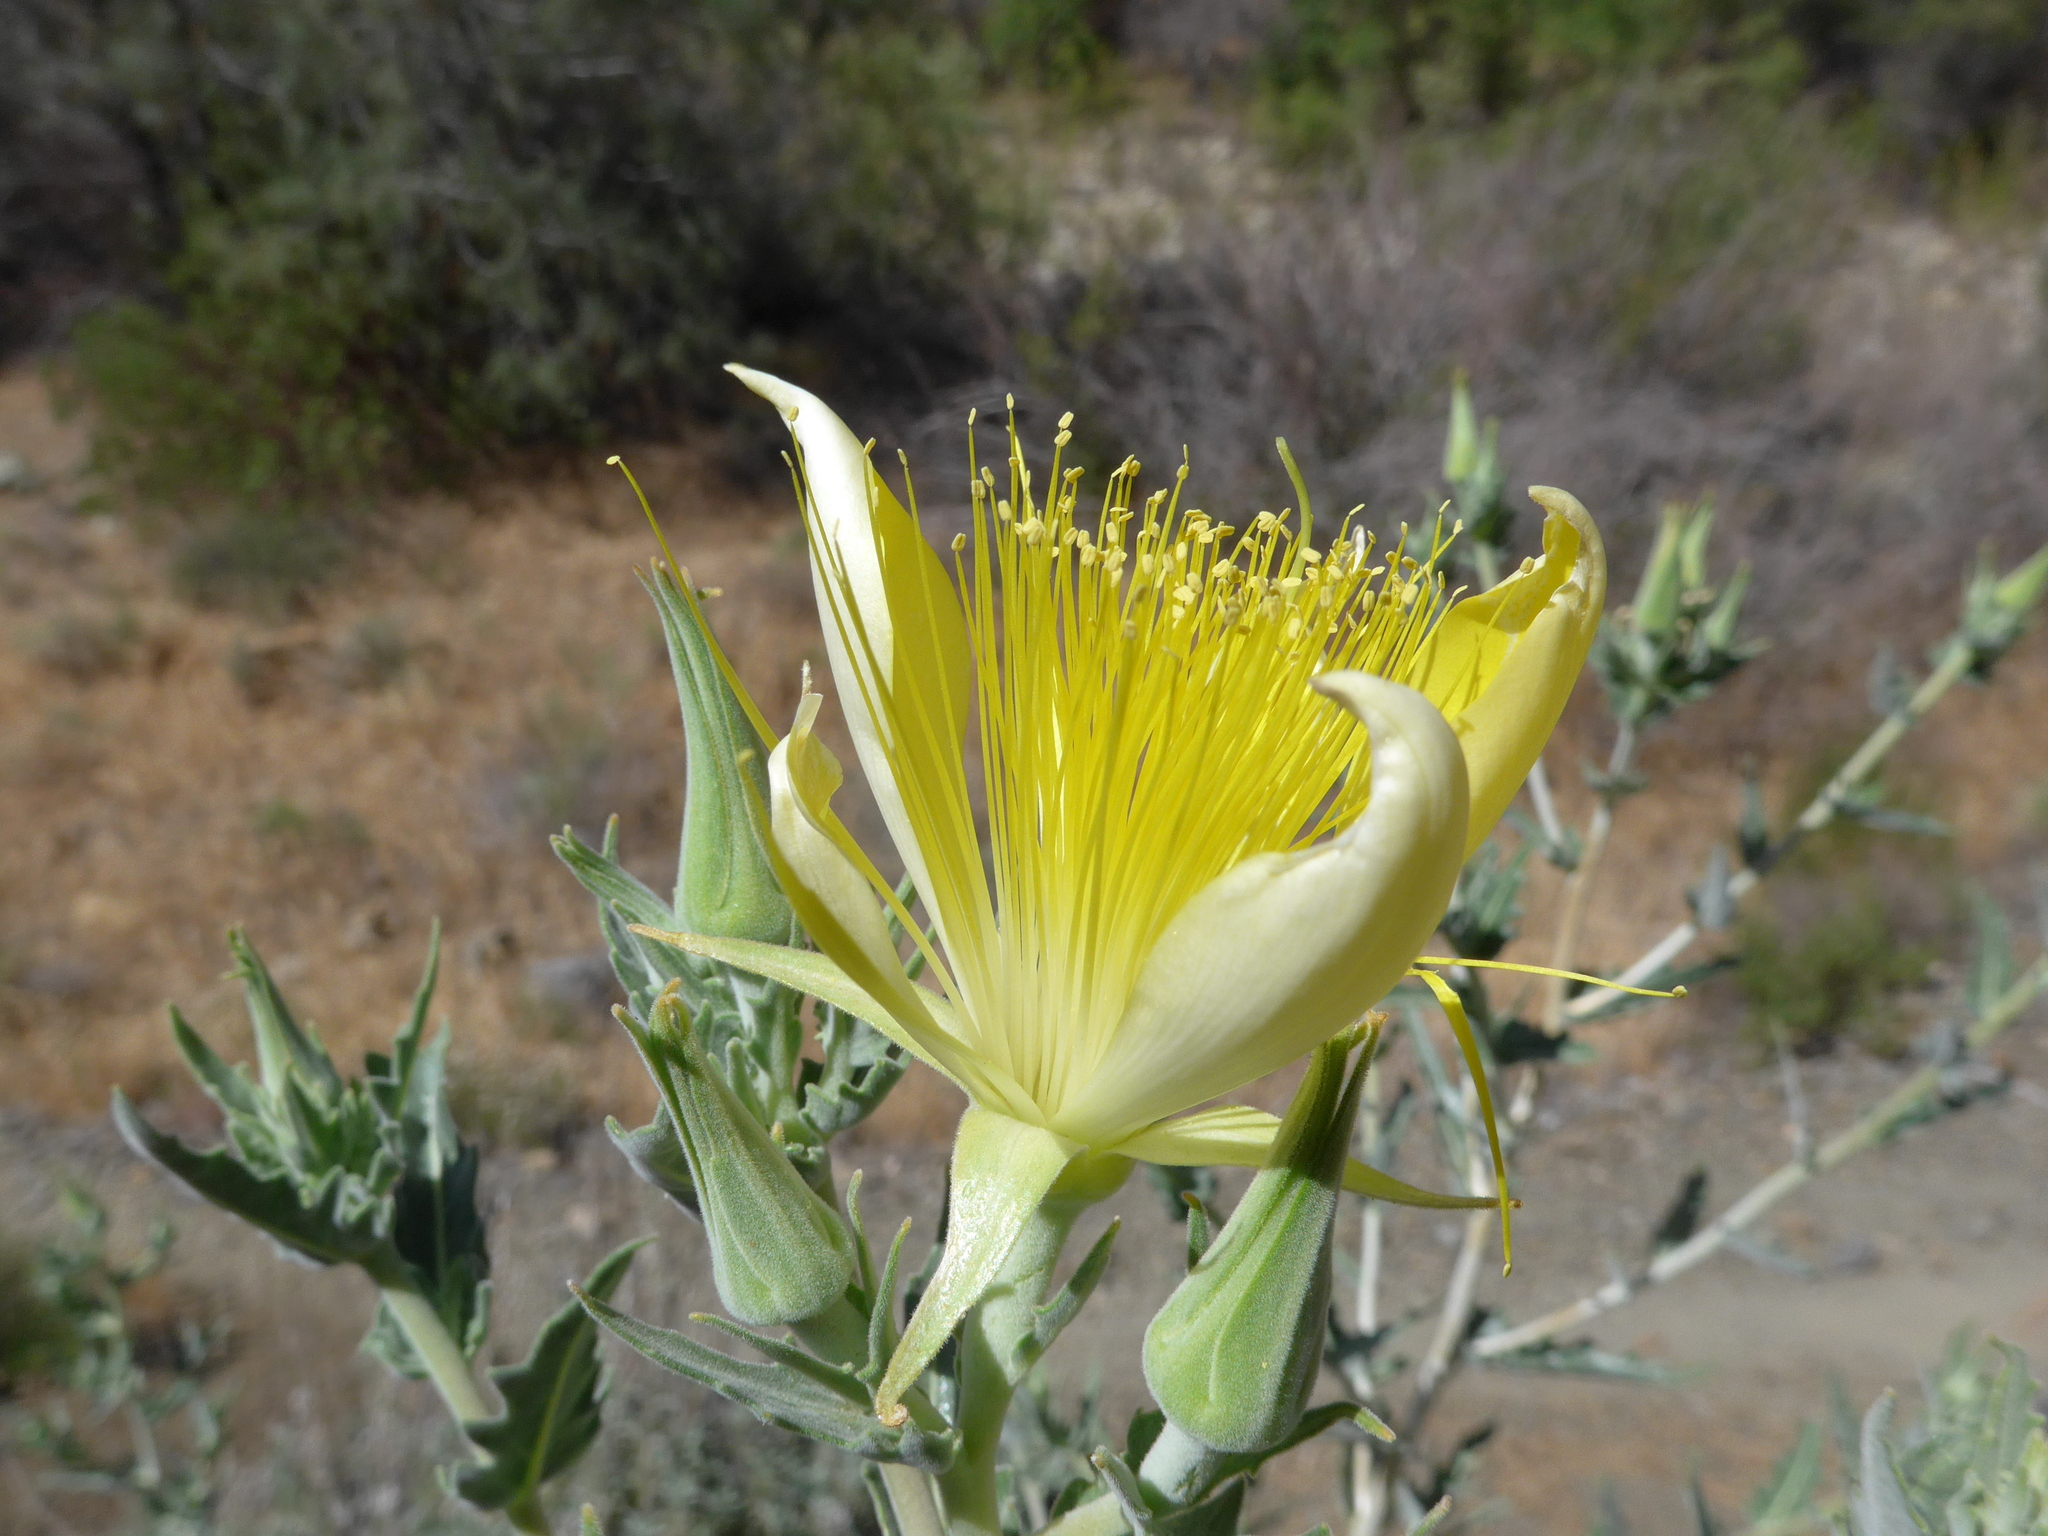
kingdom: Plantae
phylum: Tracheophyta
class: Magnoliopsida
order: Cornales
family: Loasaceae
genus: Mentzelia
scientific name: Mentzelia laevicaulis
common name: Smooth-stem blazingstar
